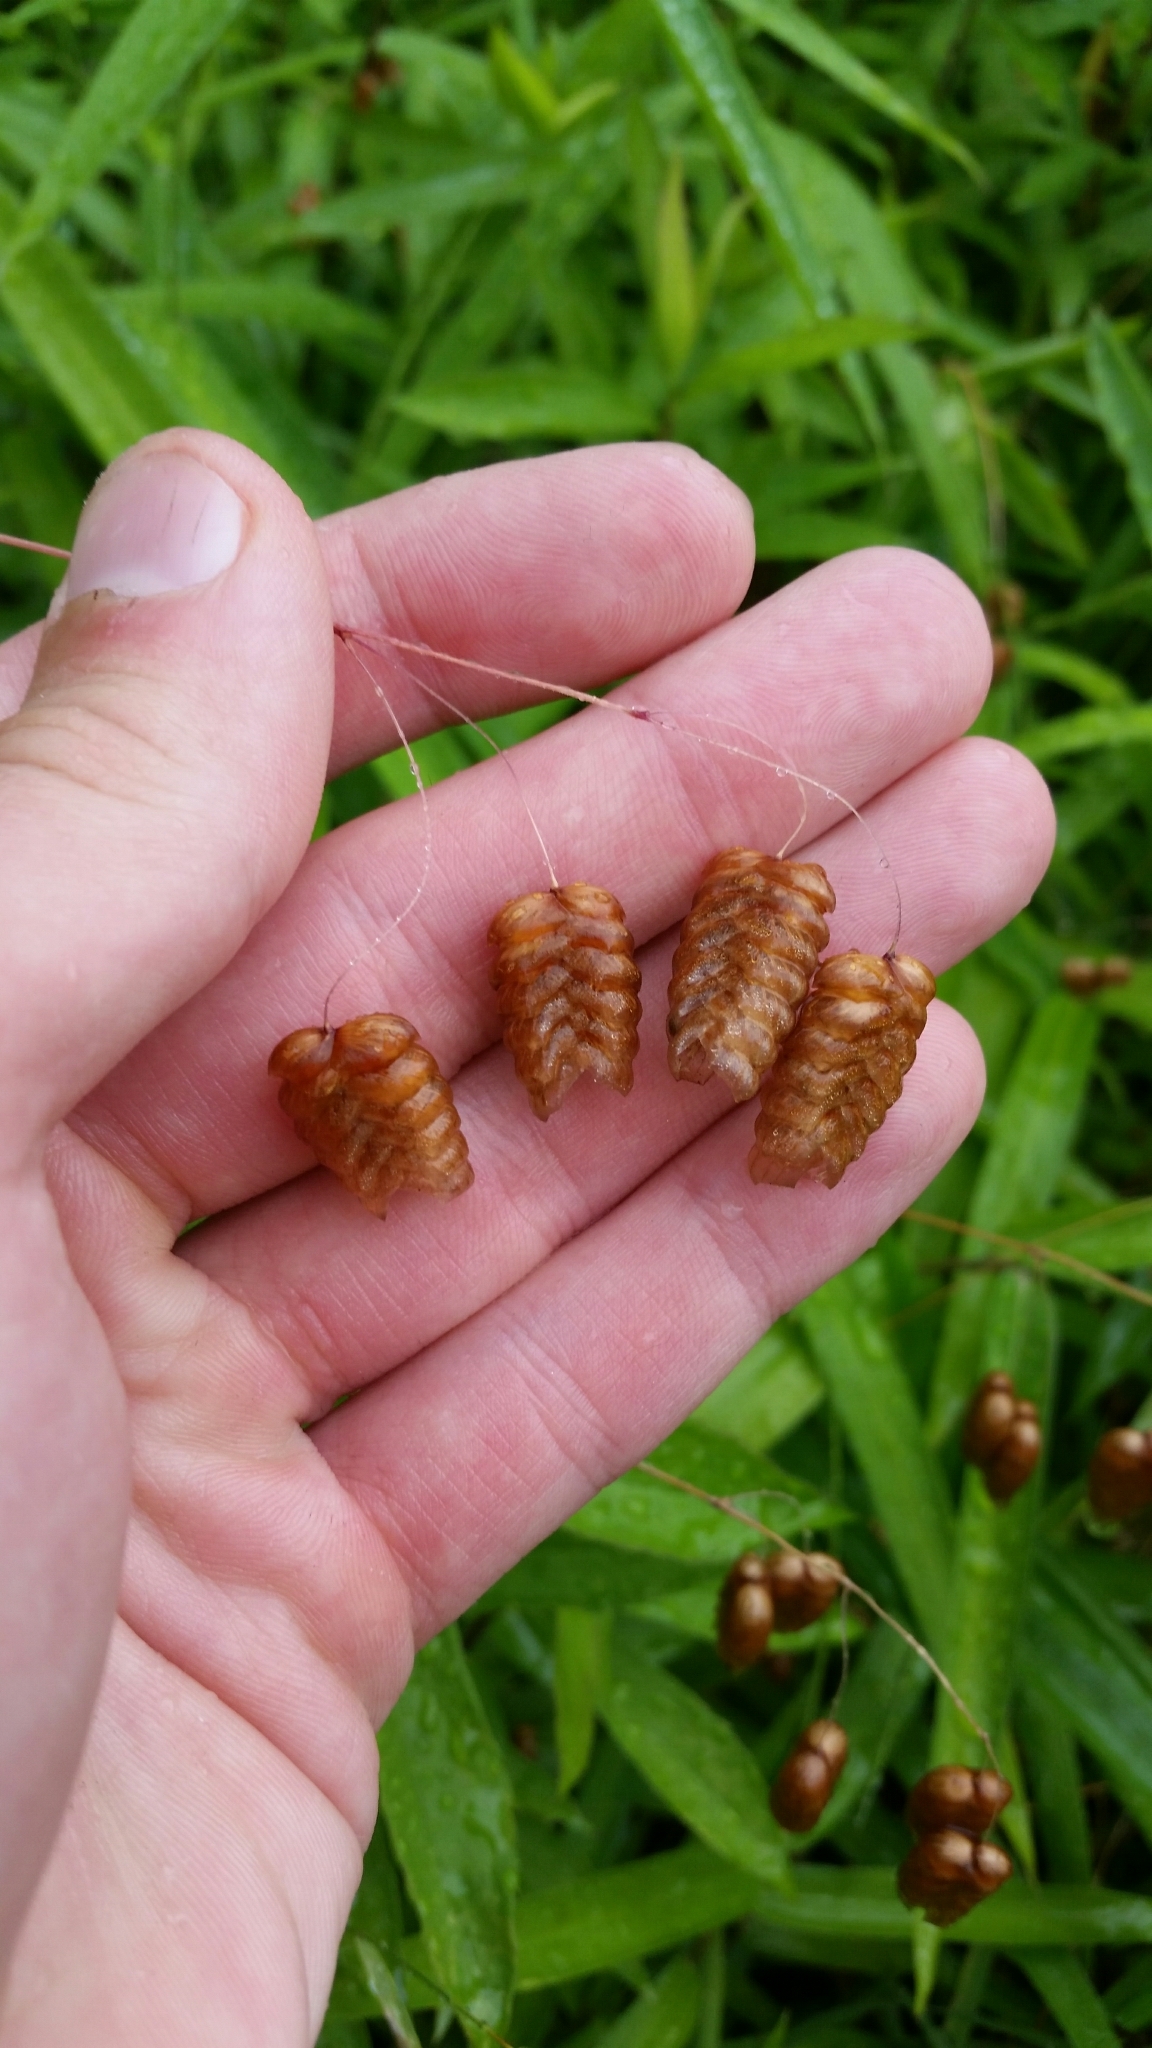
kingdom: Plantae
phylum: Tracheophyta
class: Liliopsida
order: Poales
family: Poaceae
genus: Briza
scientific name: Briza maxima
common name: Big quakinggrass
